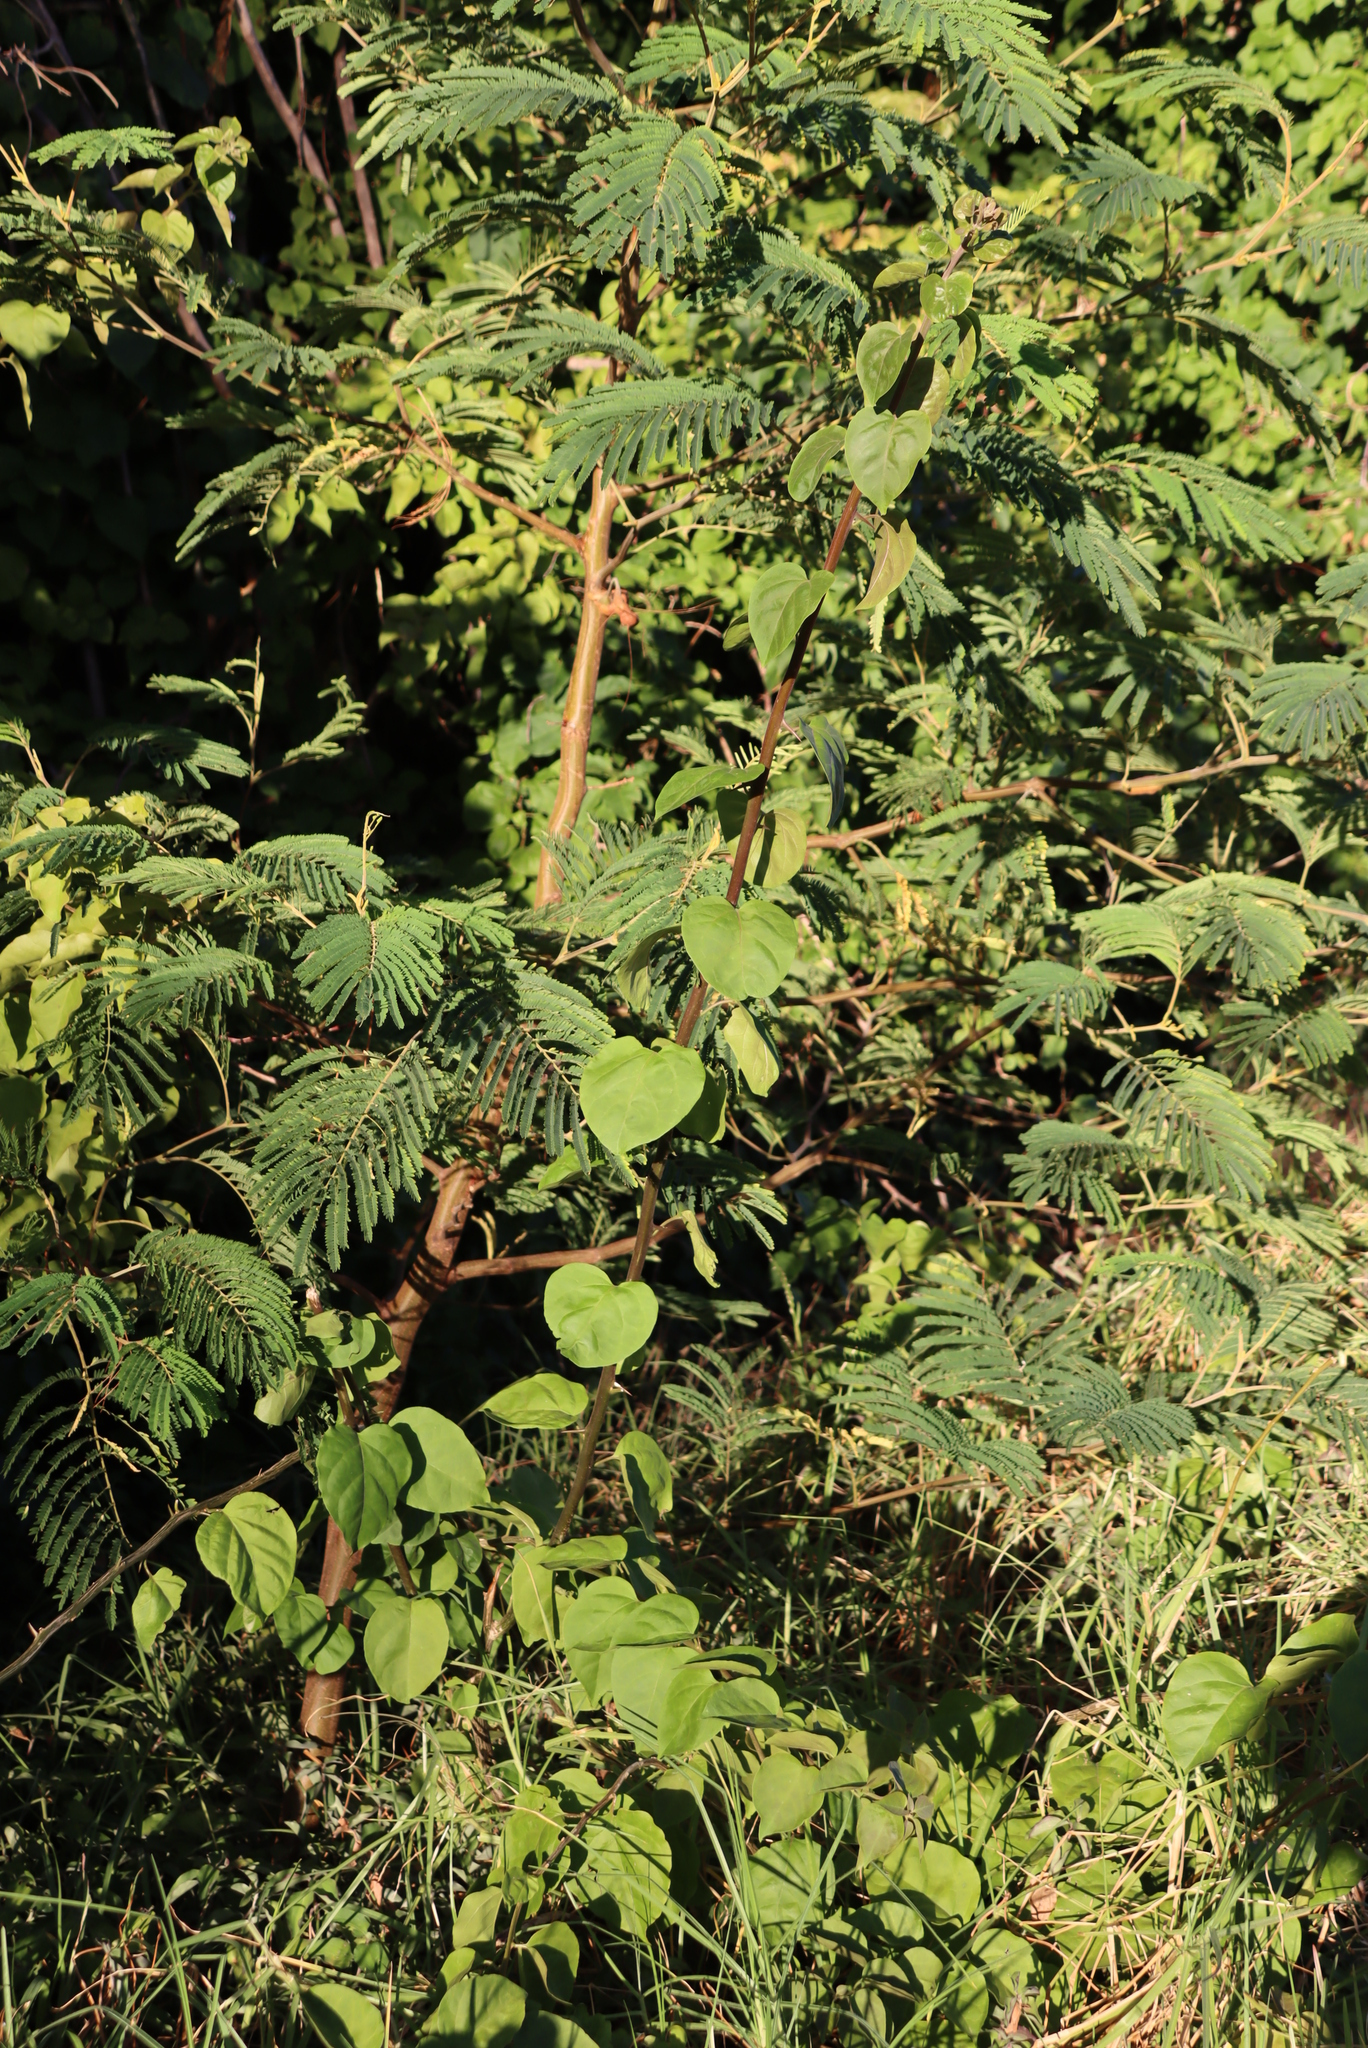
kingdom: Plantae
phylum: Tracheophyta
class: Magnoliopsida
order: Fabales
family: Fabaceae
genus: Paraserianthes
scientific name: Paraserianthes lophantha
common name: Plume albizia
